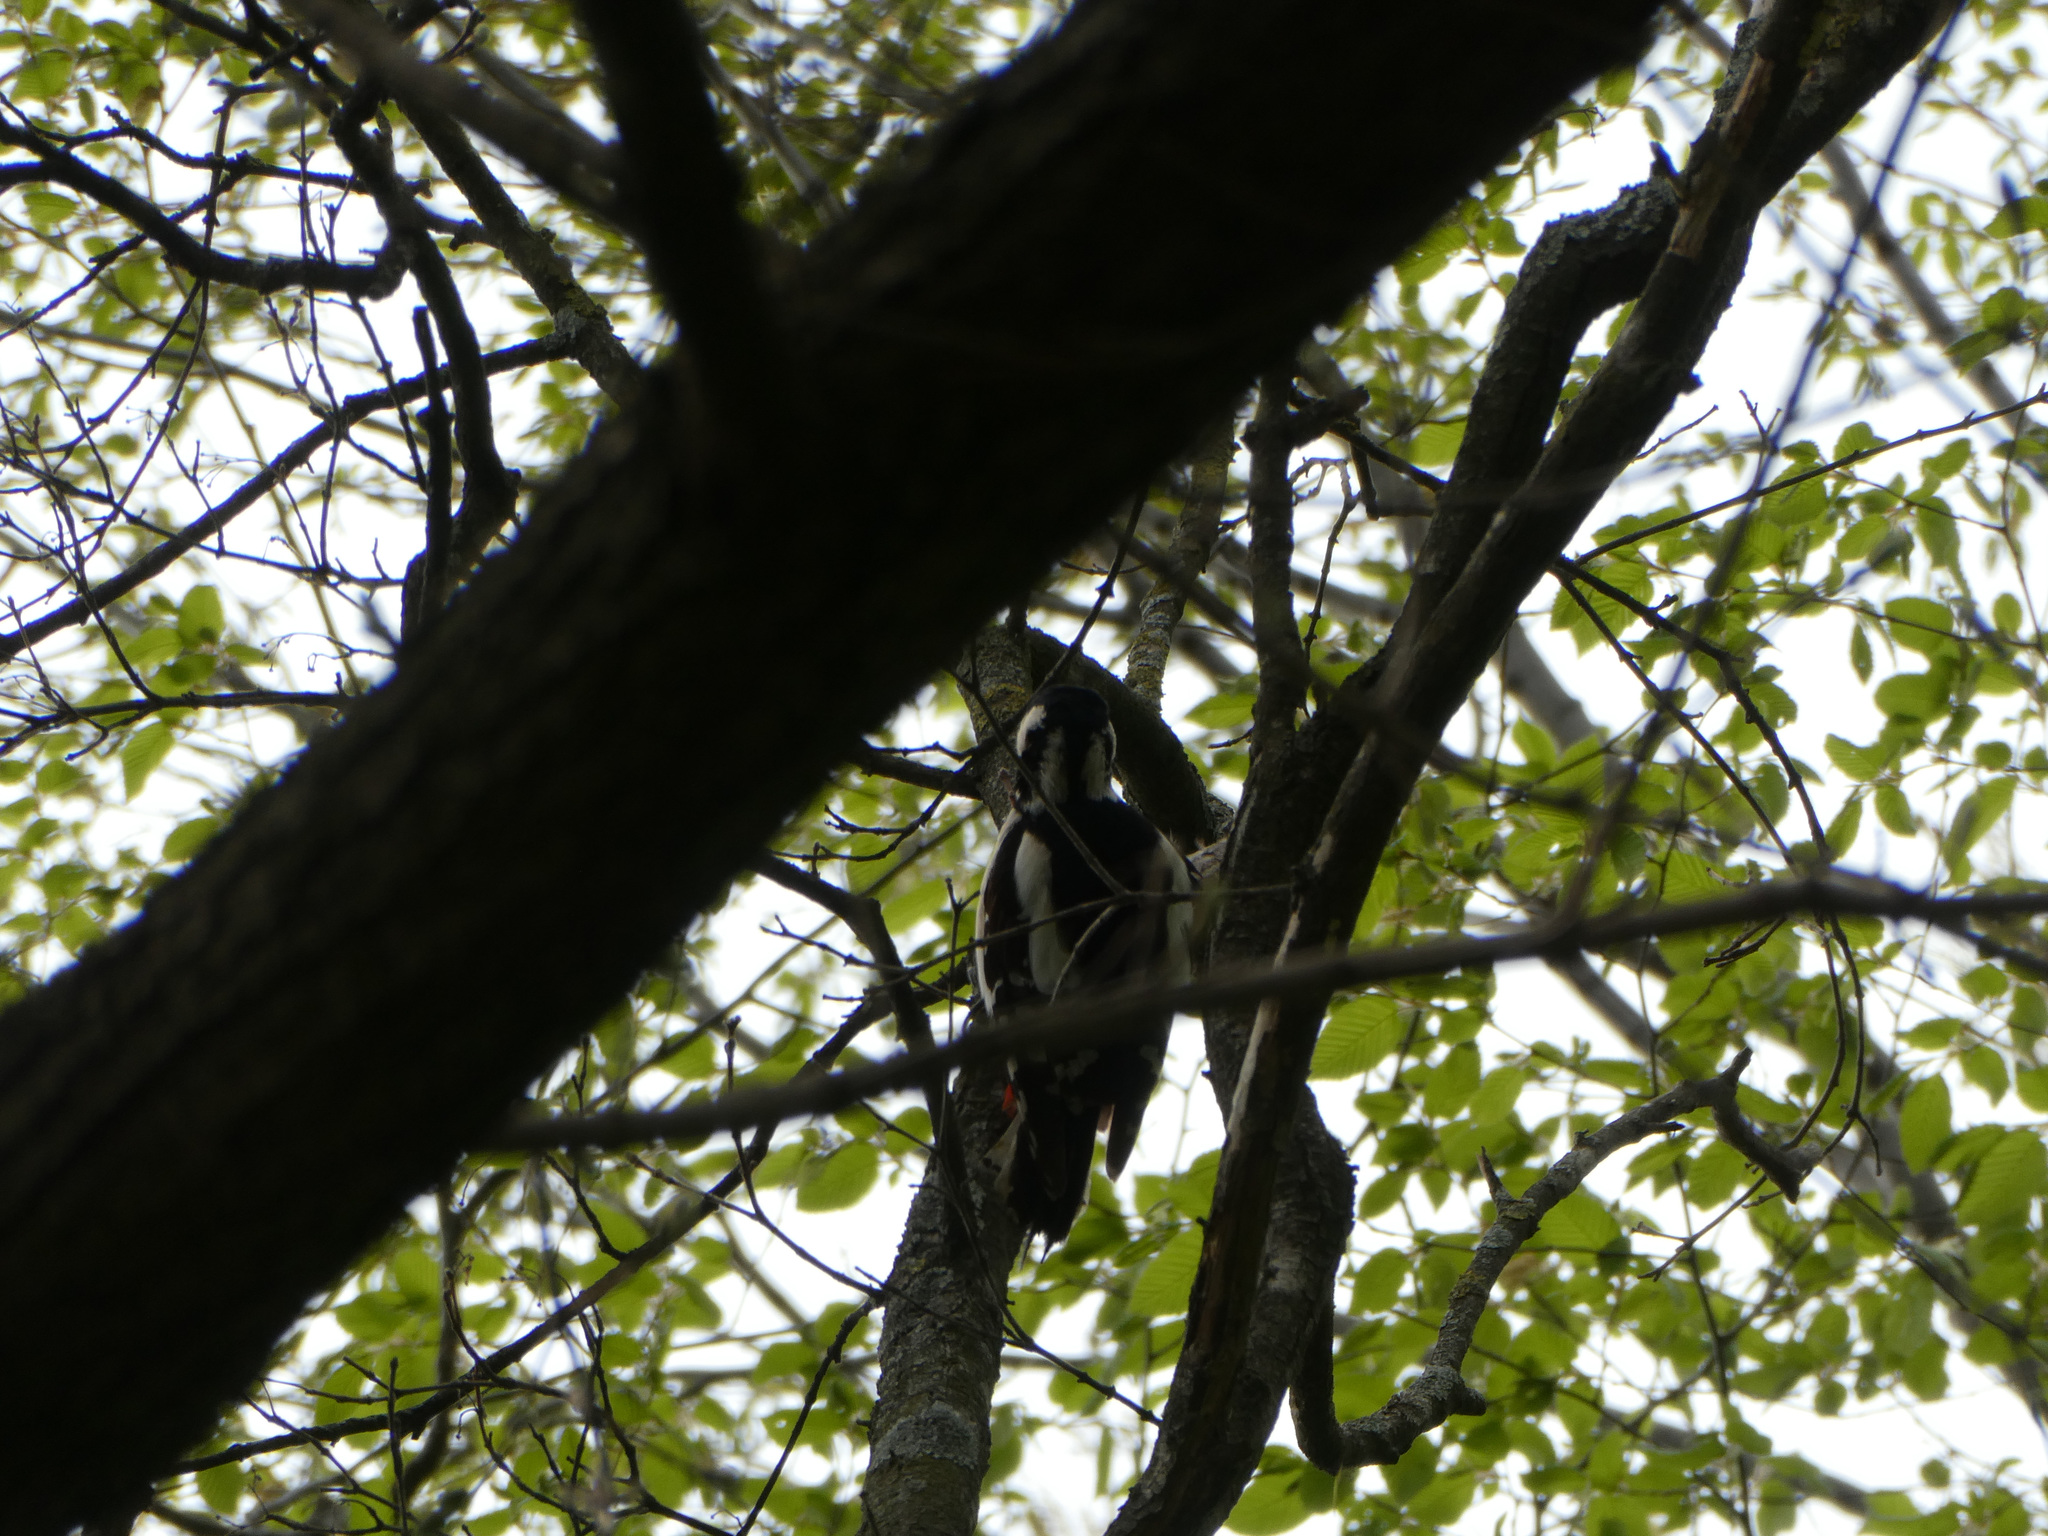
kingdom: Animalia
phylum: Chordata
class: Aves
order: Piciformes
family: Picidae
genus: Dendrocopos
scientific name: Dendrocopos major
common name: Great spotted woodpecker
